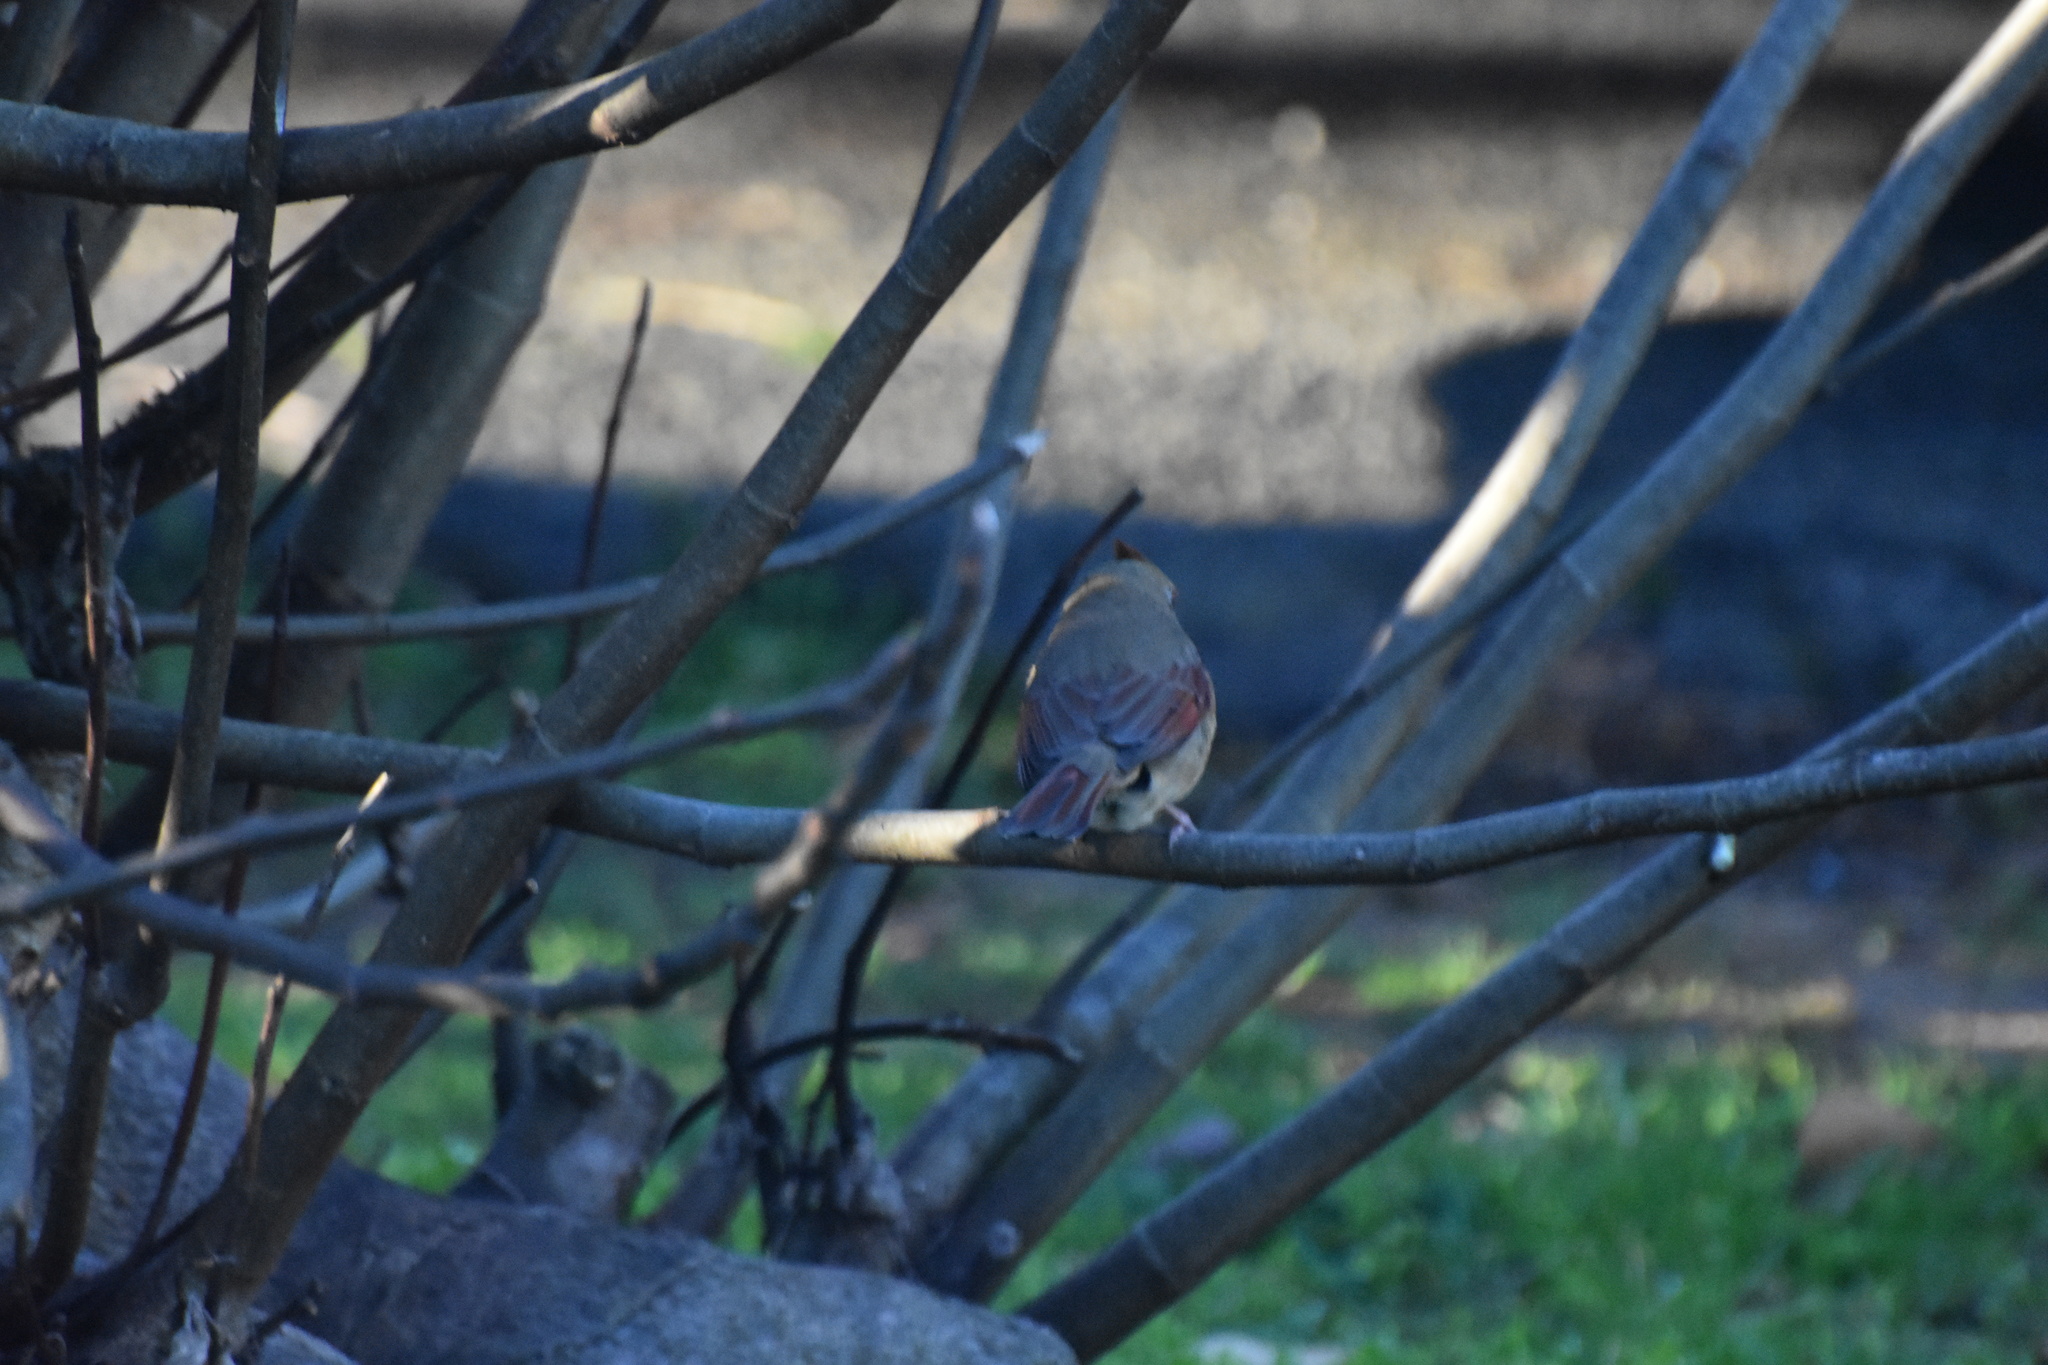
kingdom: Animalia
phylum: Chordata
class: Aves
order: Passeriformes
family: Cardinalidae
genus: Cardinalis
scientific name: Cardinalis cardinalis
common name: Northern cardinal
